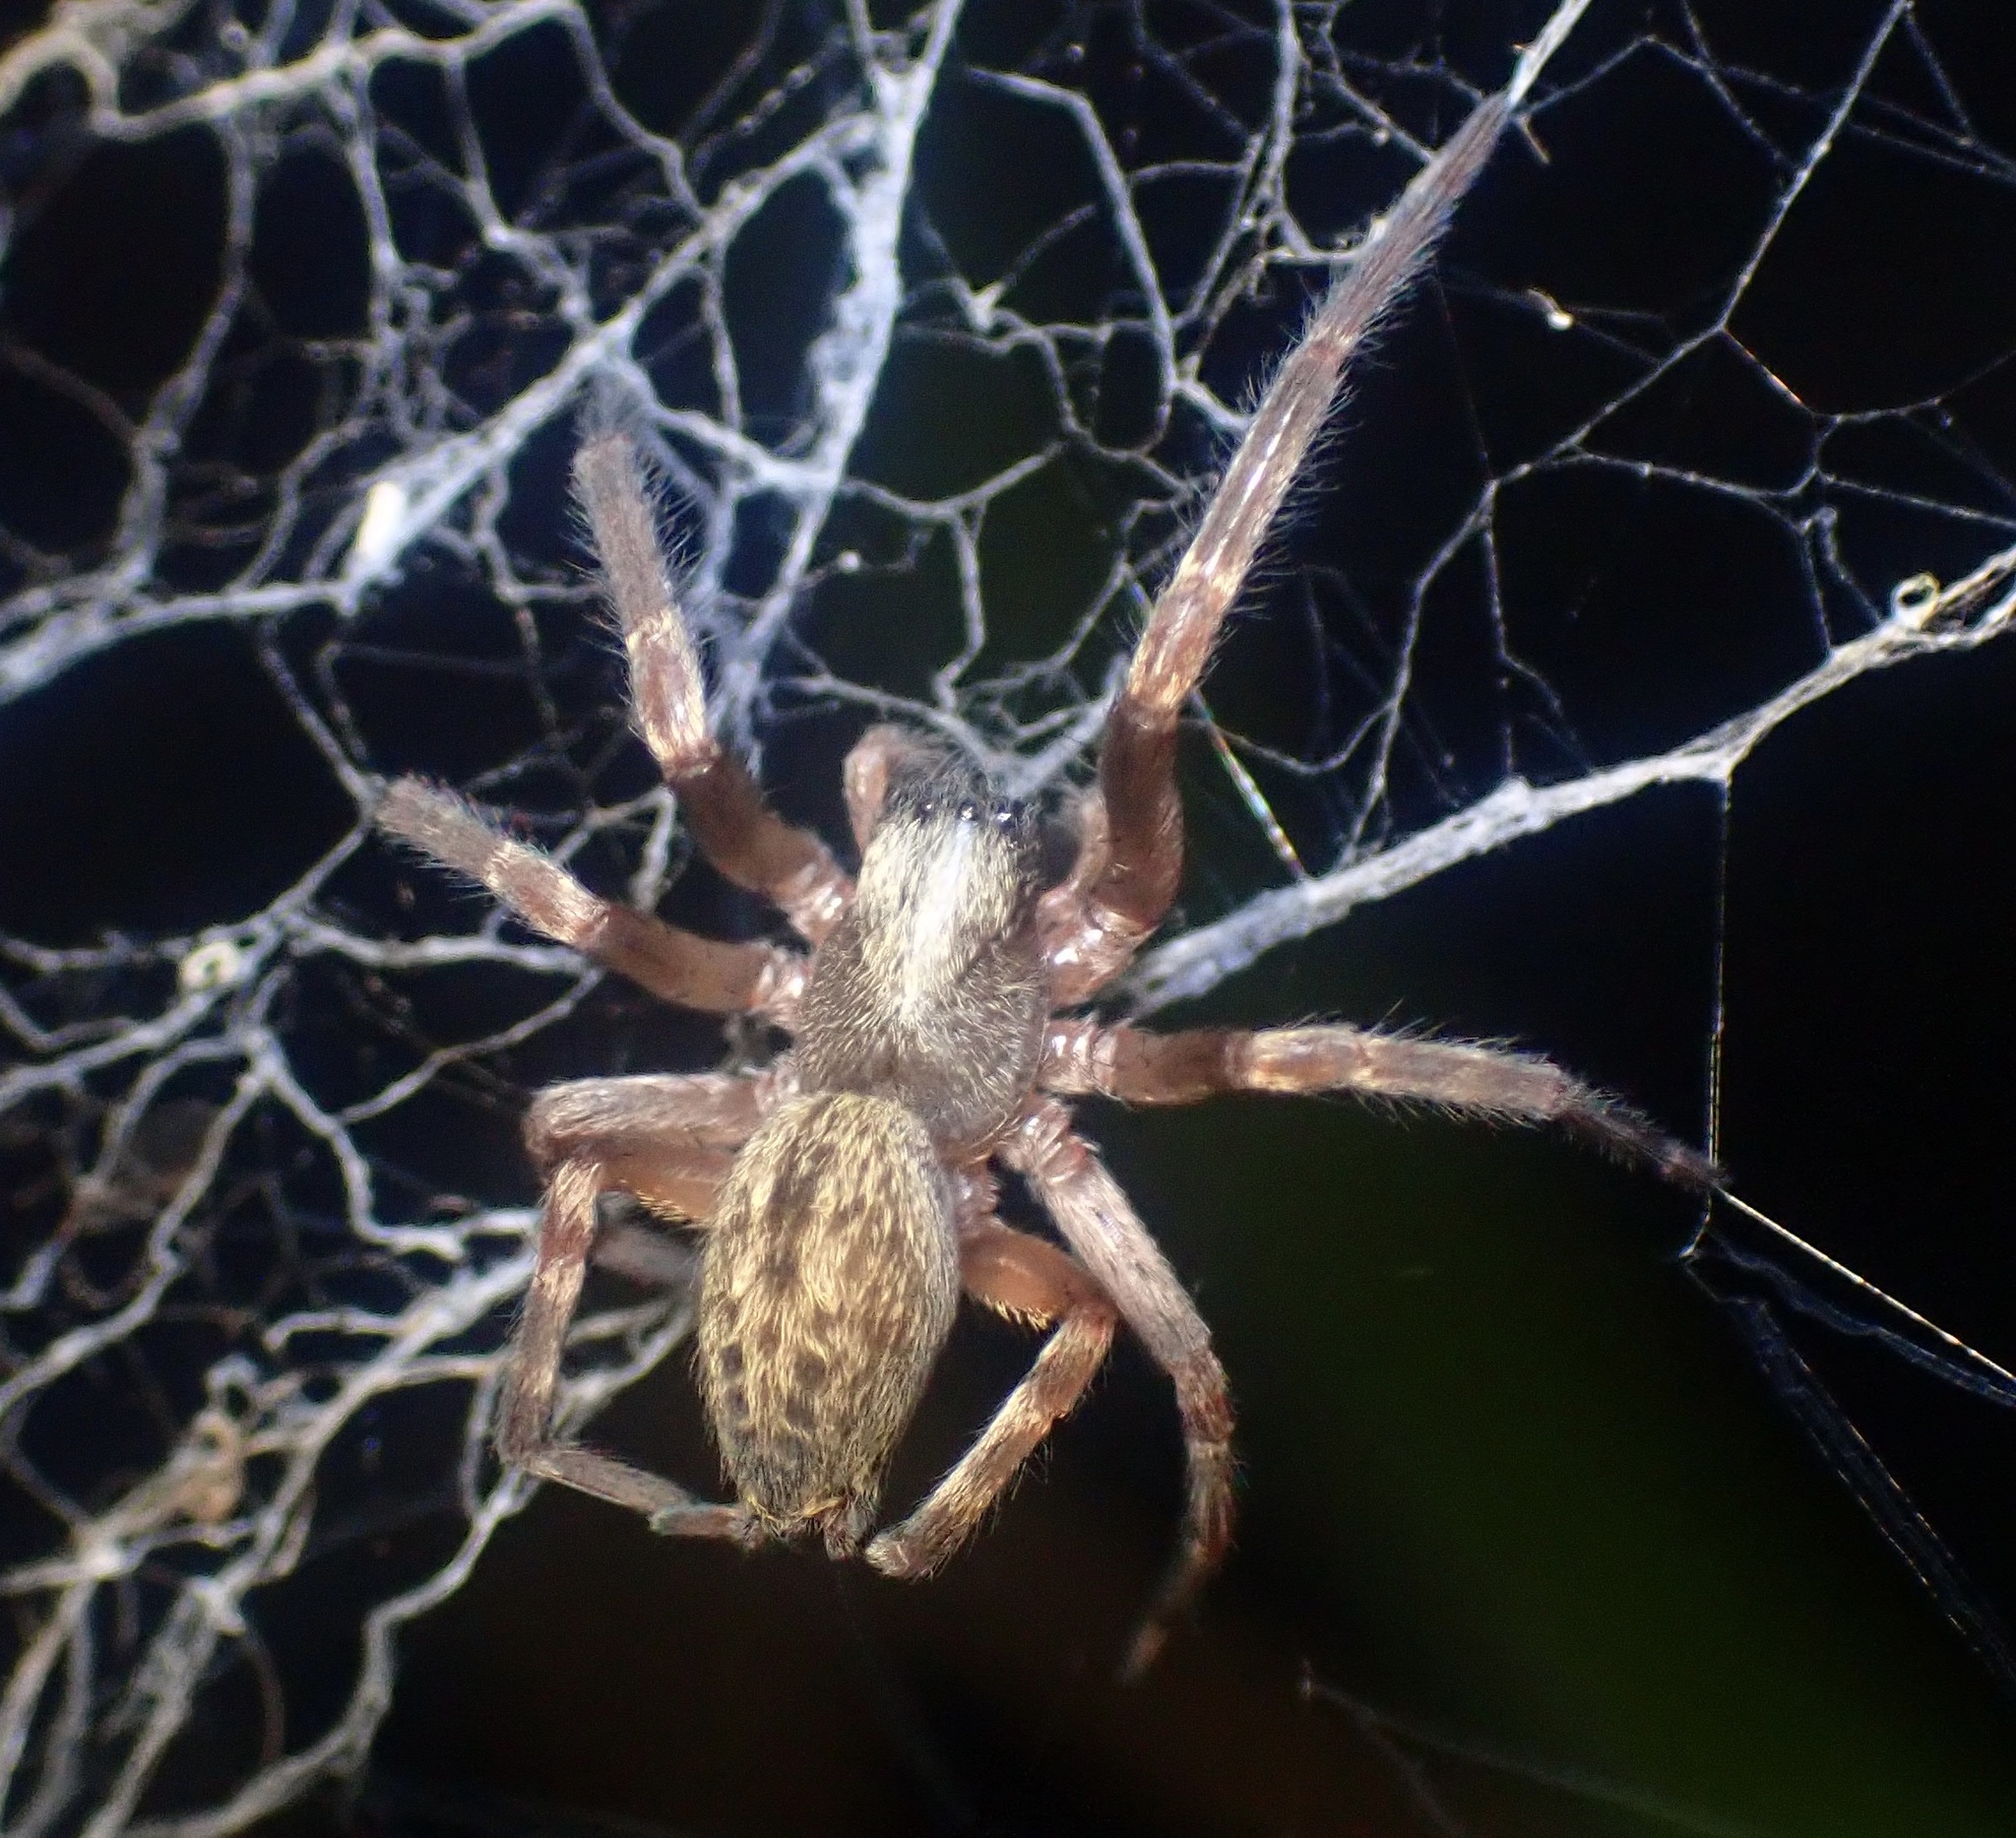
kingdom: Animalia
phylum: Arthropoda
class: Arachnida
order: Araneae
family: Desidae
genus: Badumna
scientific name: Badumna longinqua
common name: Gray house spider
